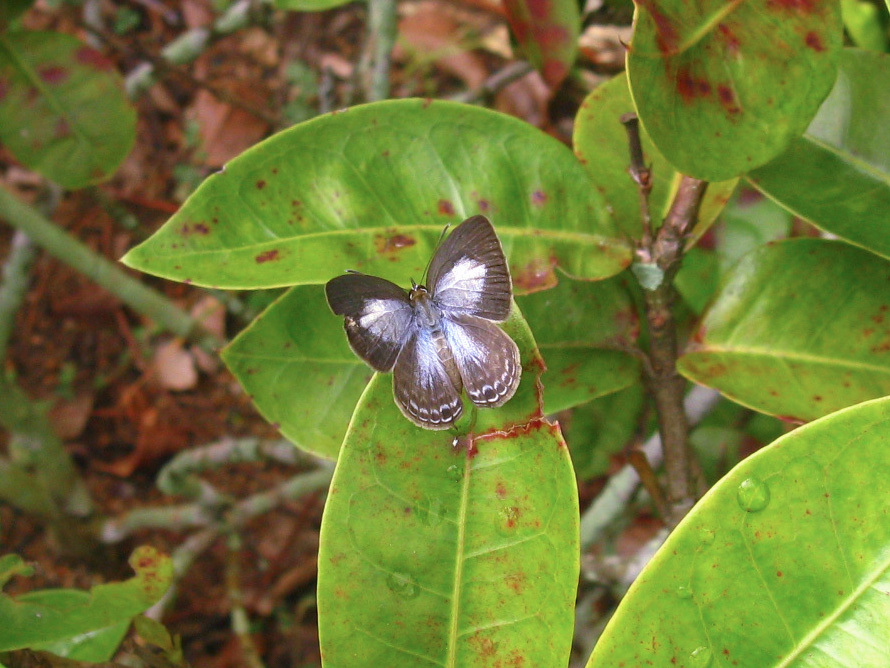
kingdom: Animalia
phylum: Arthropoda
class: Insecta
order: Lepidoptera
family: Lycaenidae
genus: Nacaduba
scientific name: Nacaduba kurava
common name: Transparent 6-line blue
